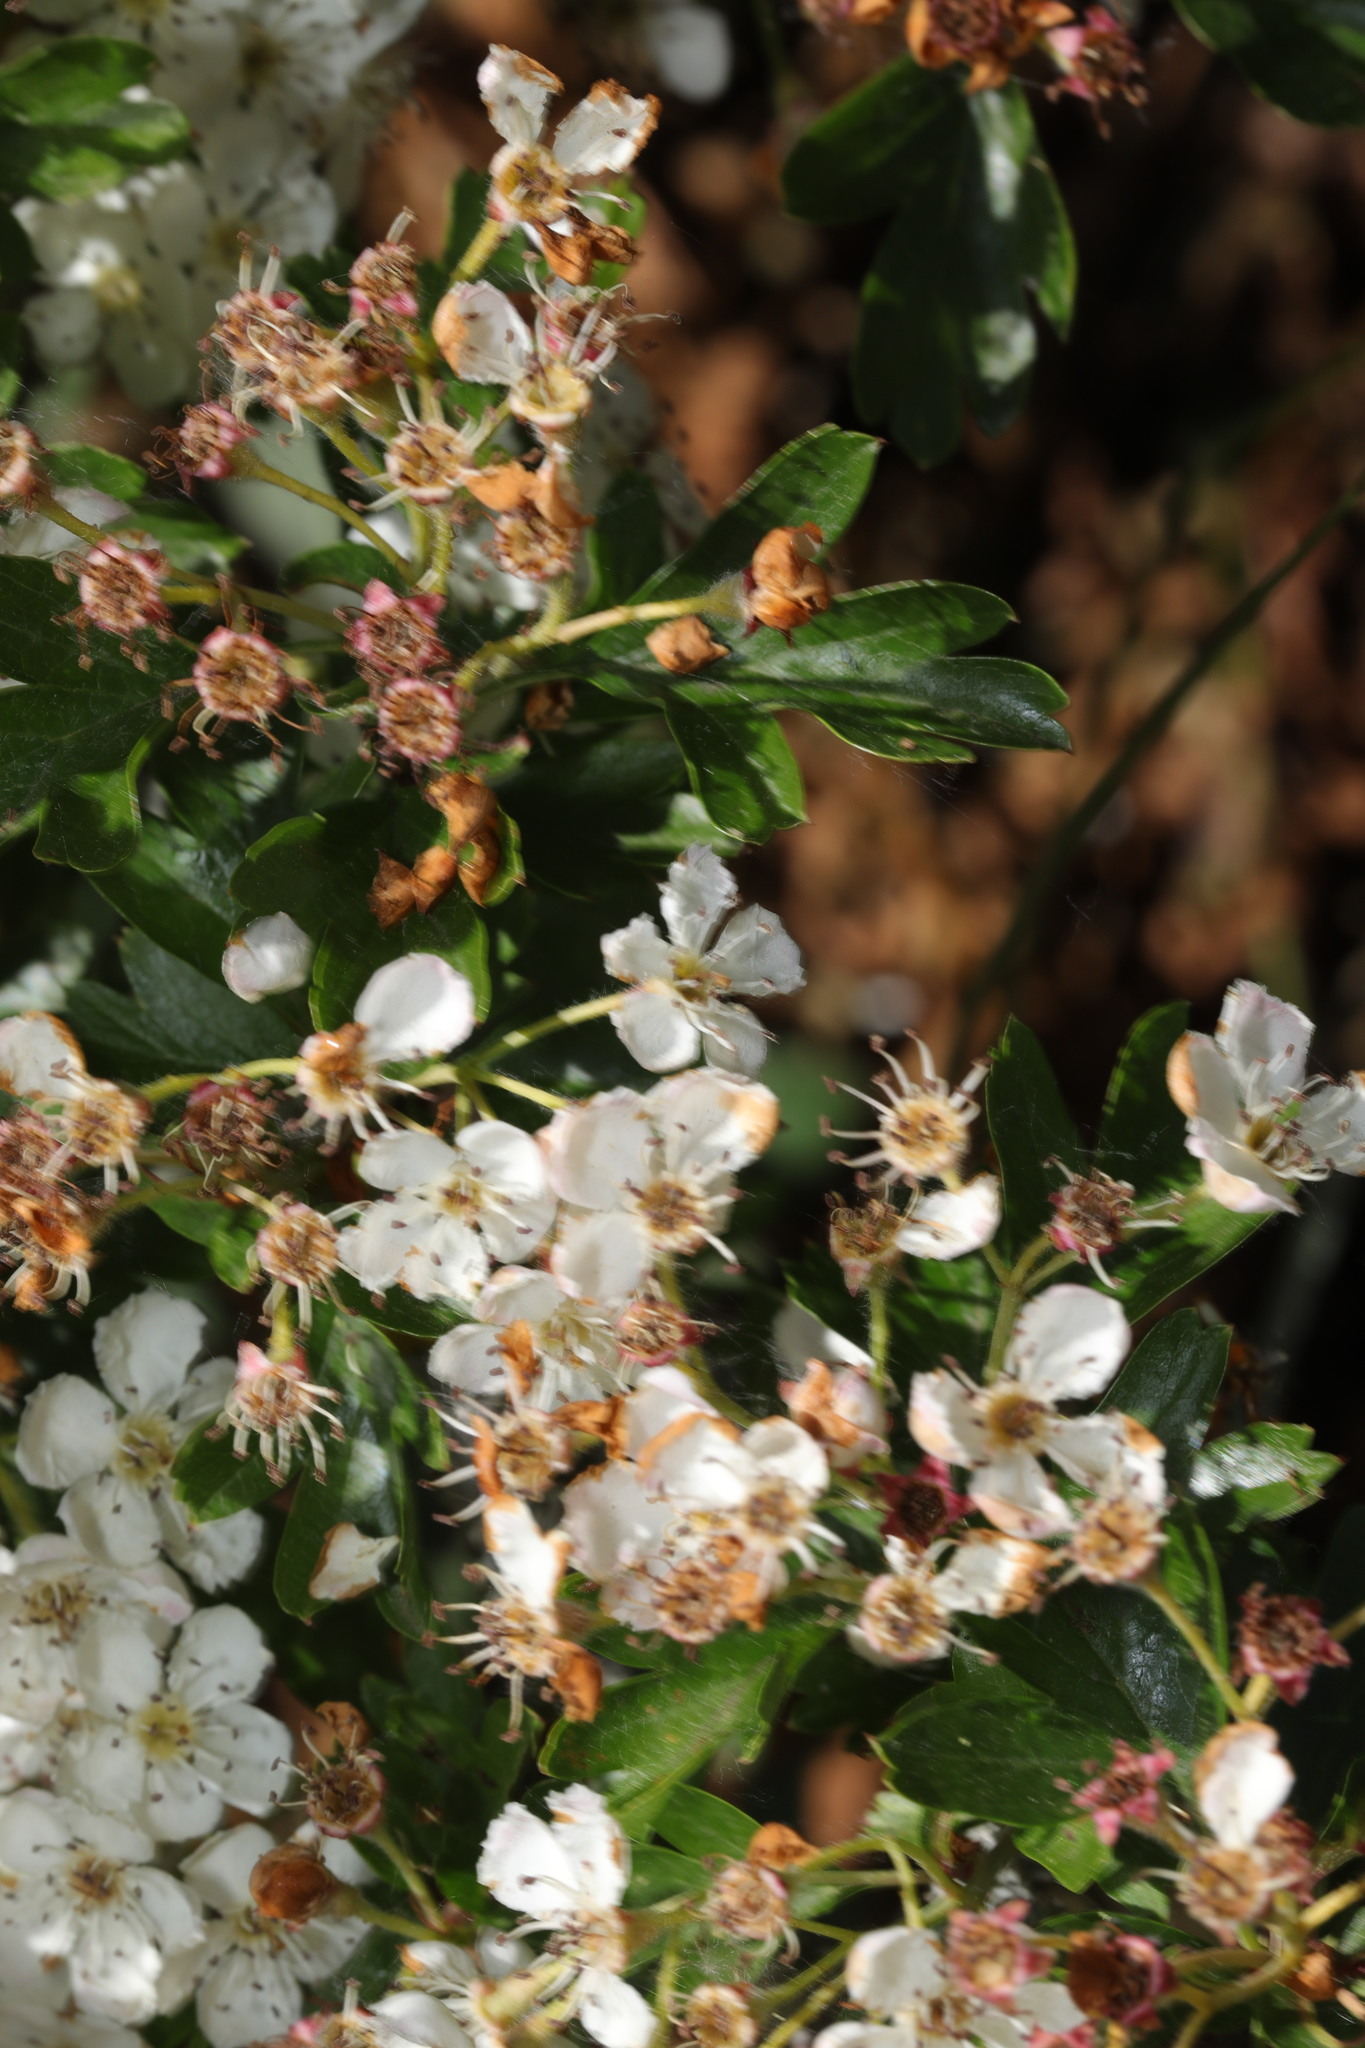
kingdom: Plantae
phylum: Tracheophyta
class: Magnoliopsida
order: Rosales
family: Rosaceae
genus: Crataegus
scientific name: Crataegus monogyna
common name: Hawthorn
